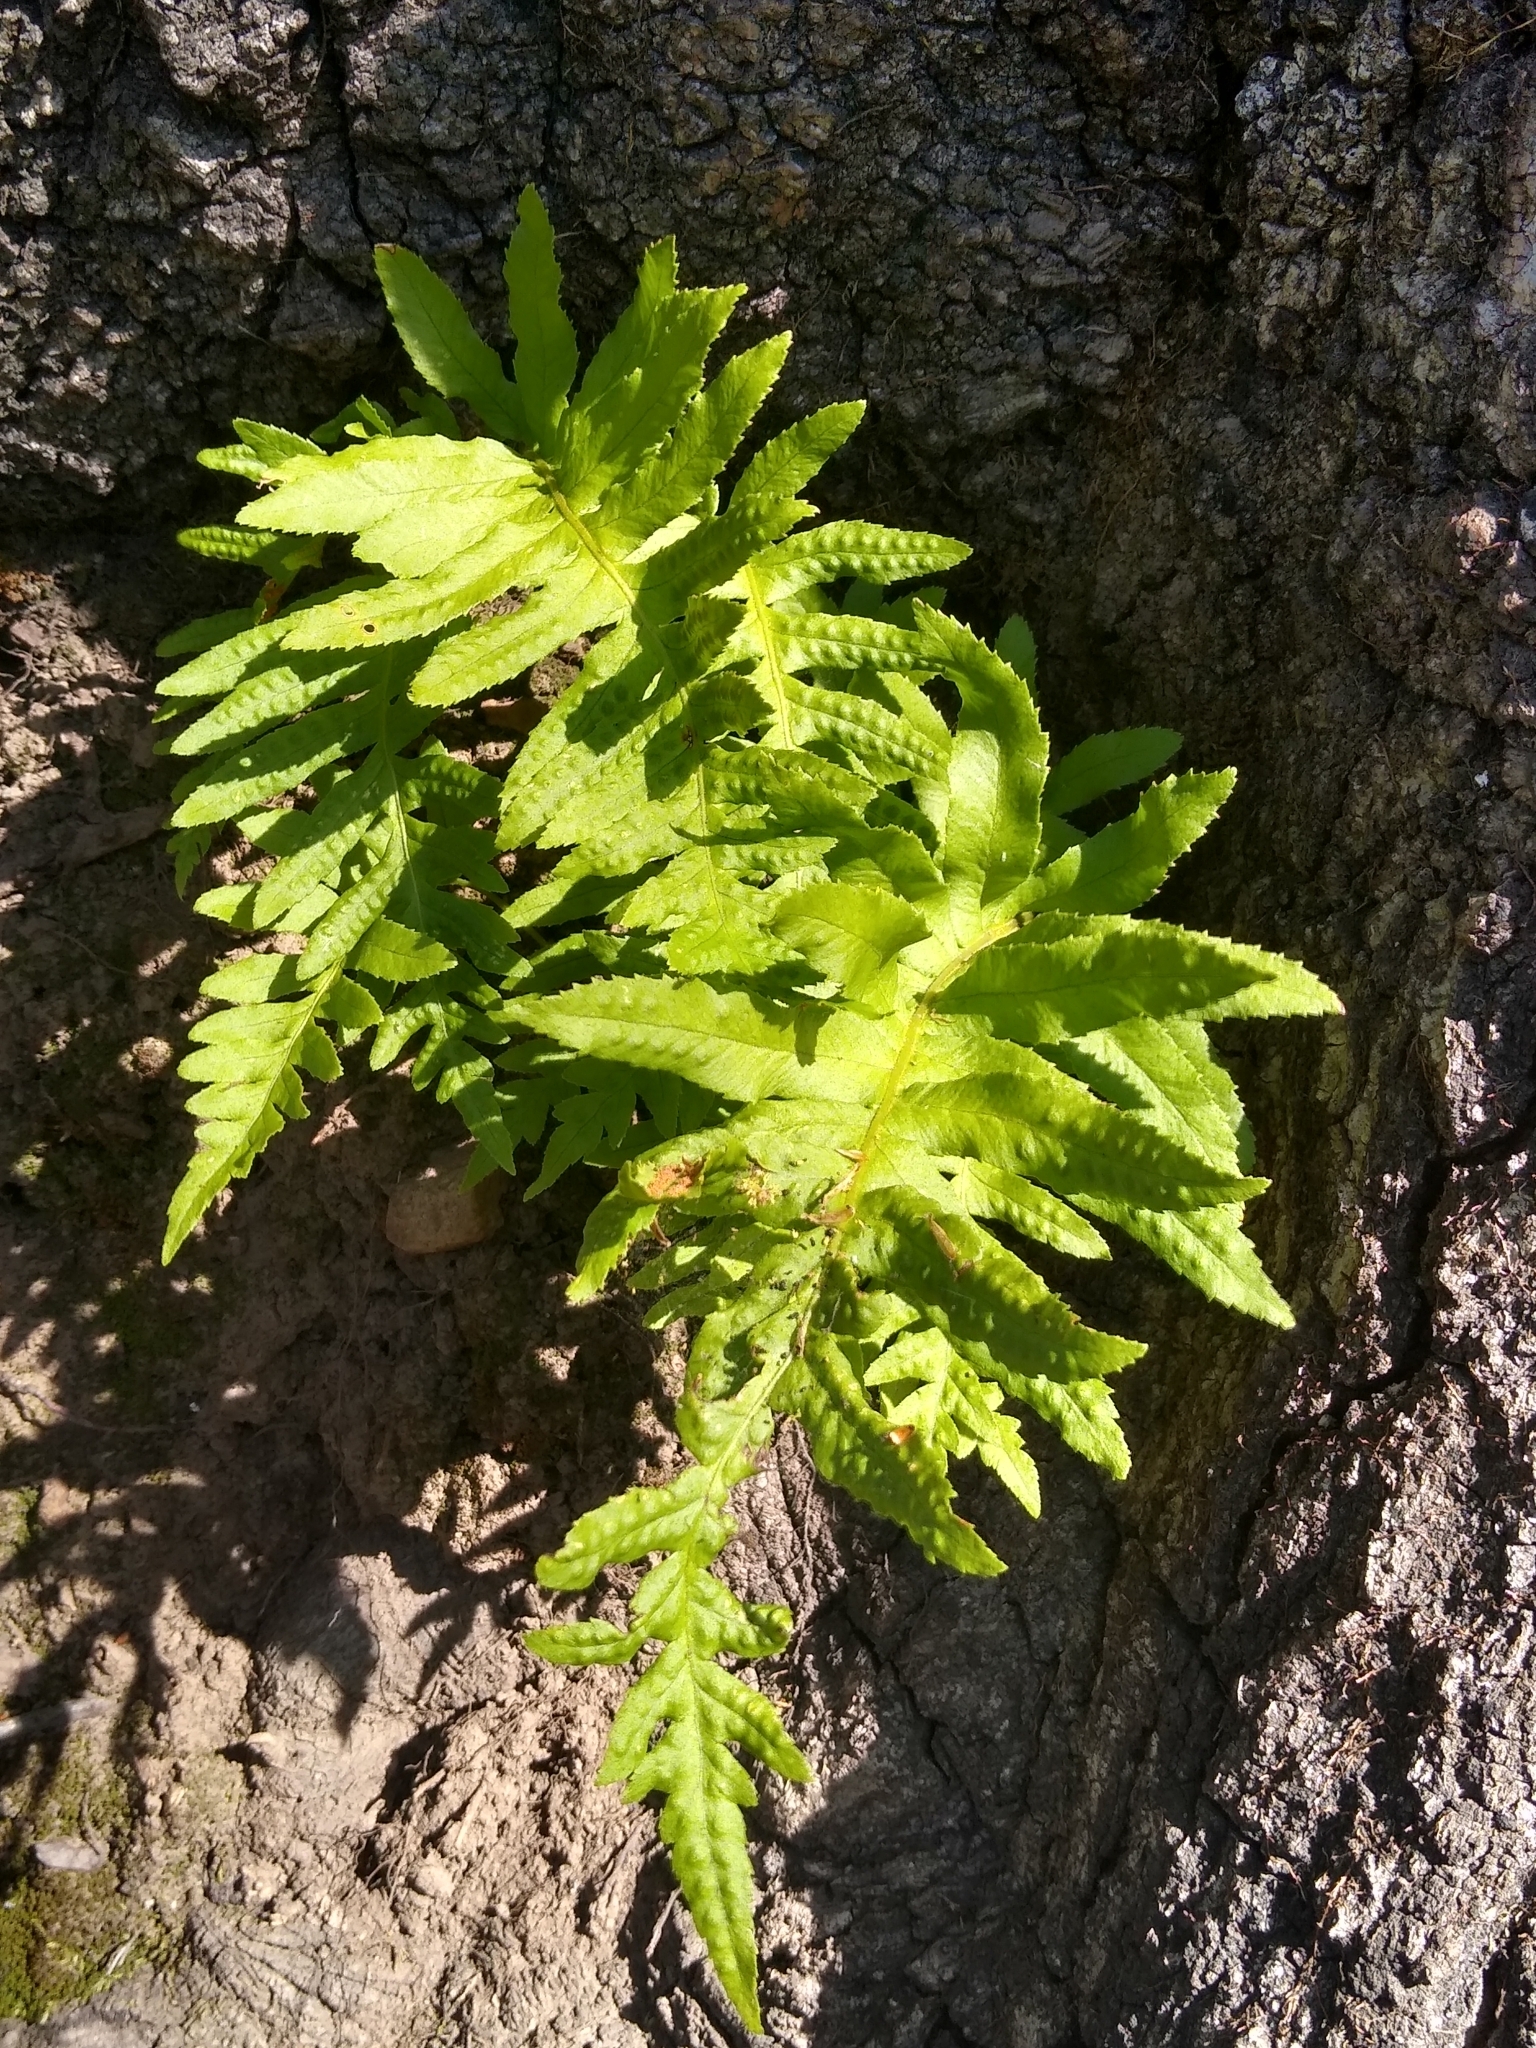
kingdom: Plantae
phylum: Tracheophyta
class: Polypodiopsida
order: Polypodiales
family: Polypodiaceae
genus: Polypodium
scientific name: Polypodium californicum
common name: California polypody
